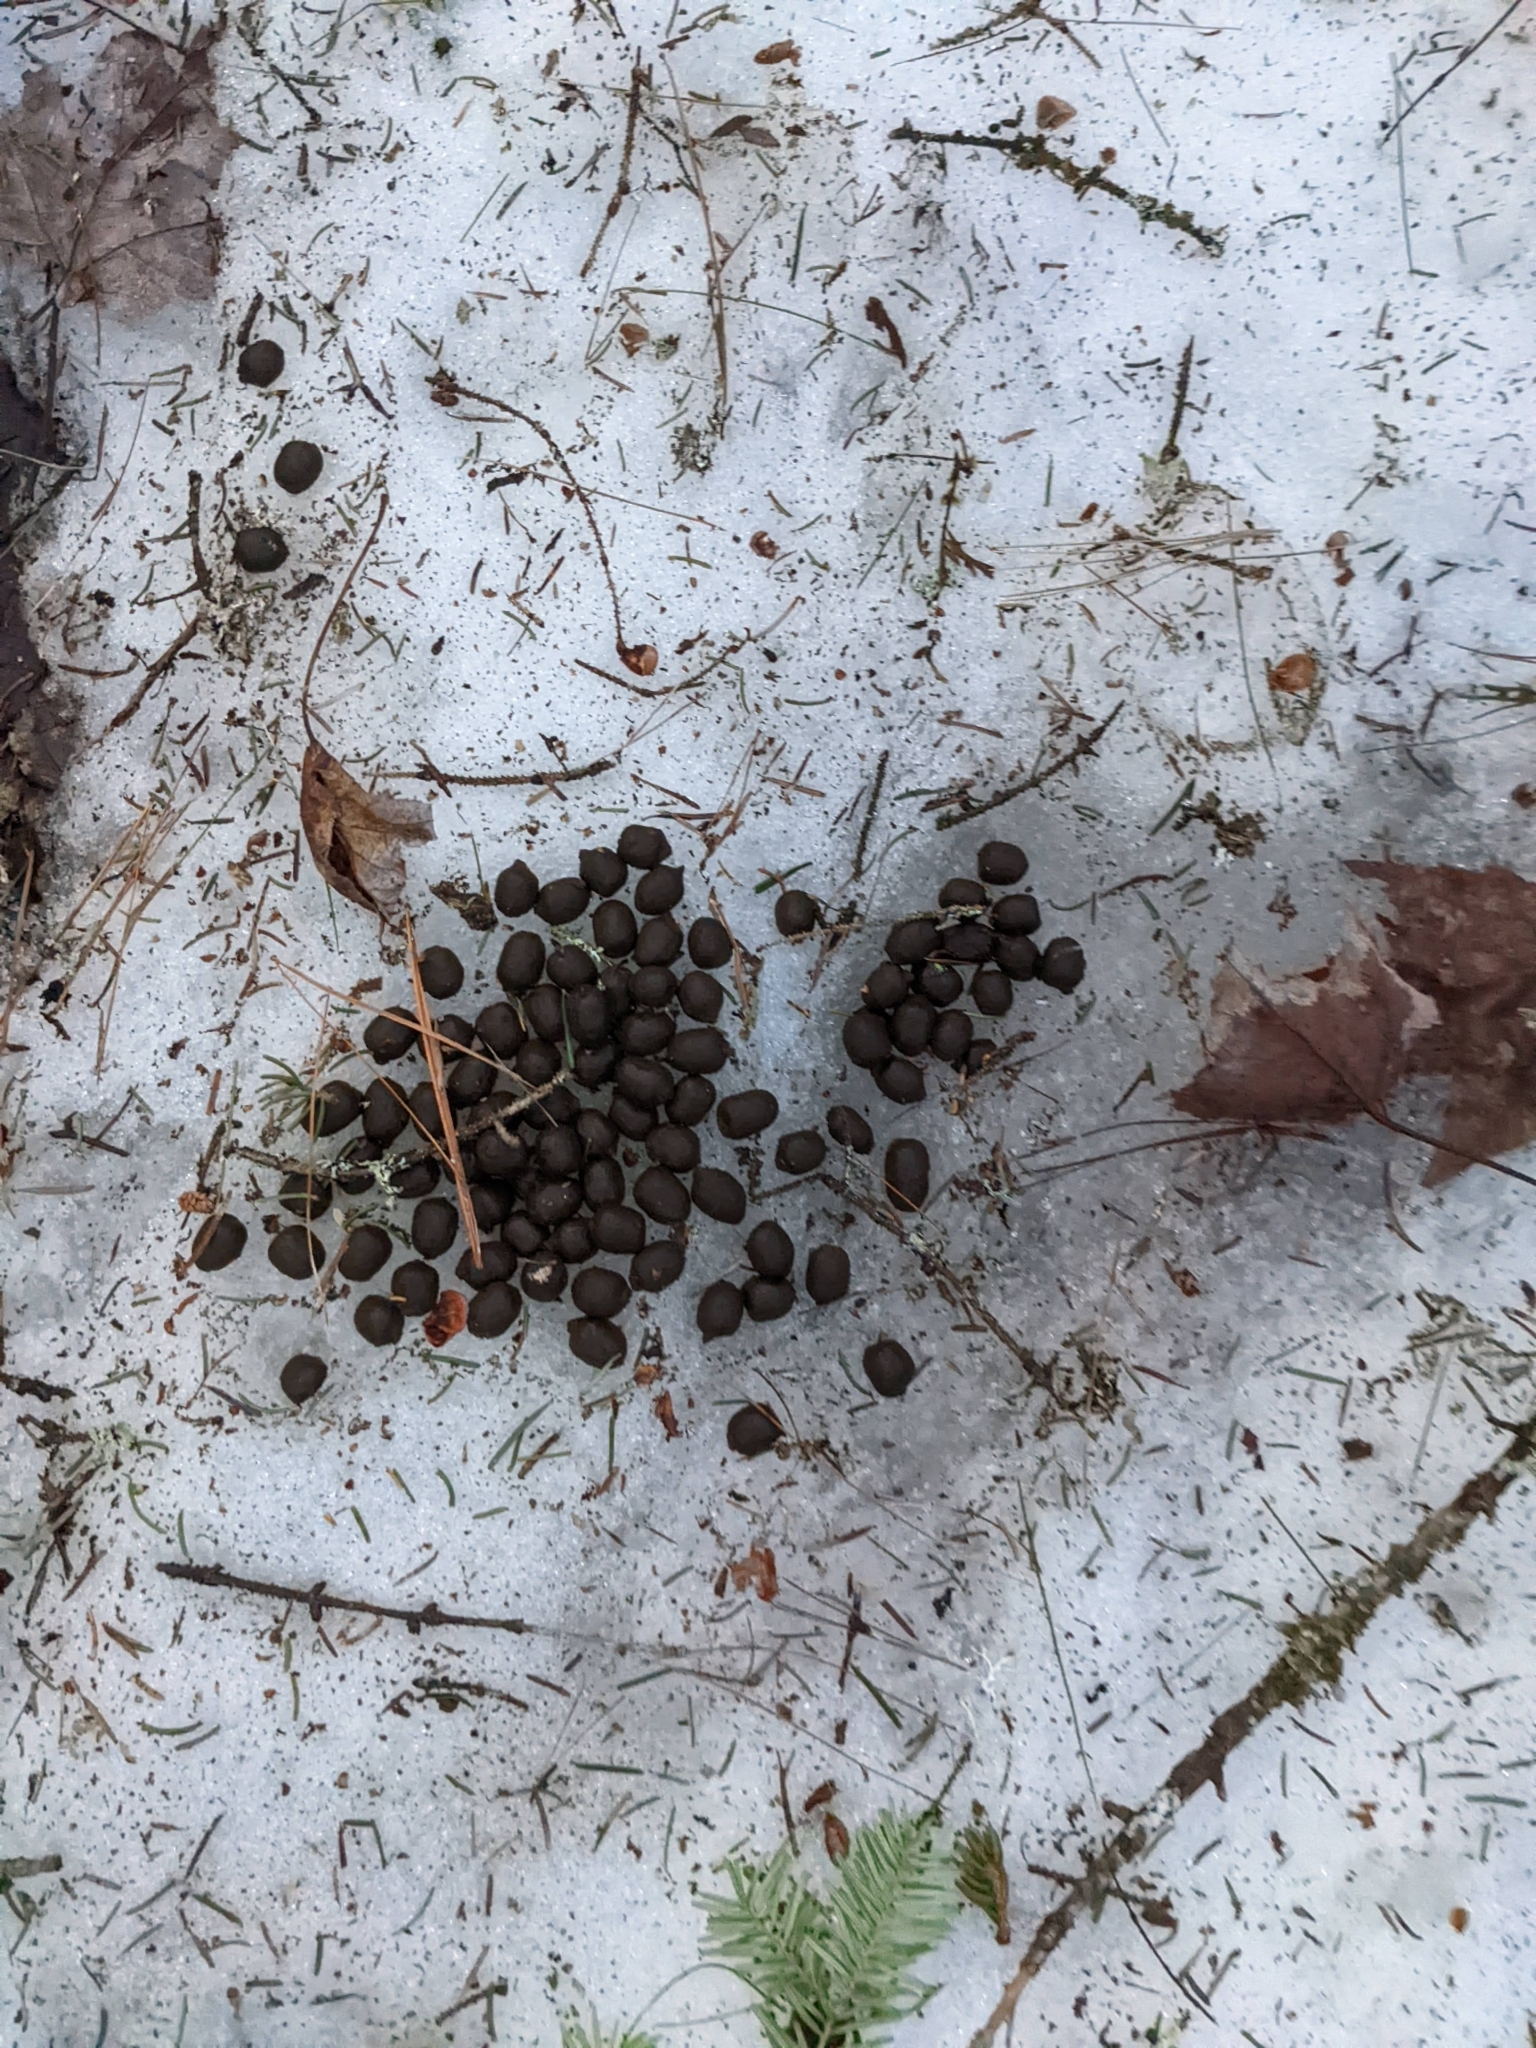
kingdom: Animalia
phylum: Chordata
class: Mammalia
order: Artiodactyla
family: Cervidae
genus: Odocoileus
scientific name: Odocoileus virginianus
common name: White-tailed deer
